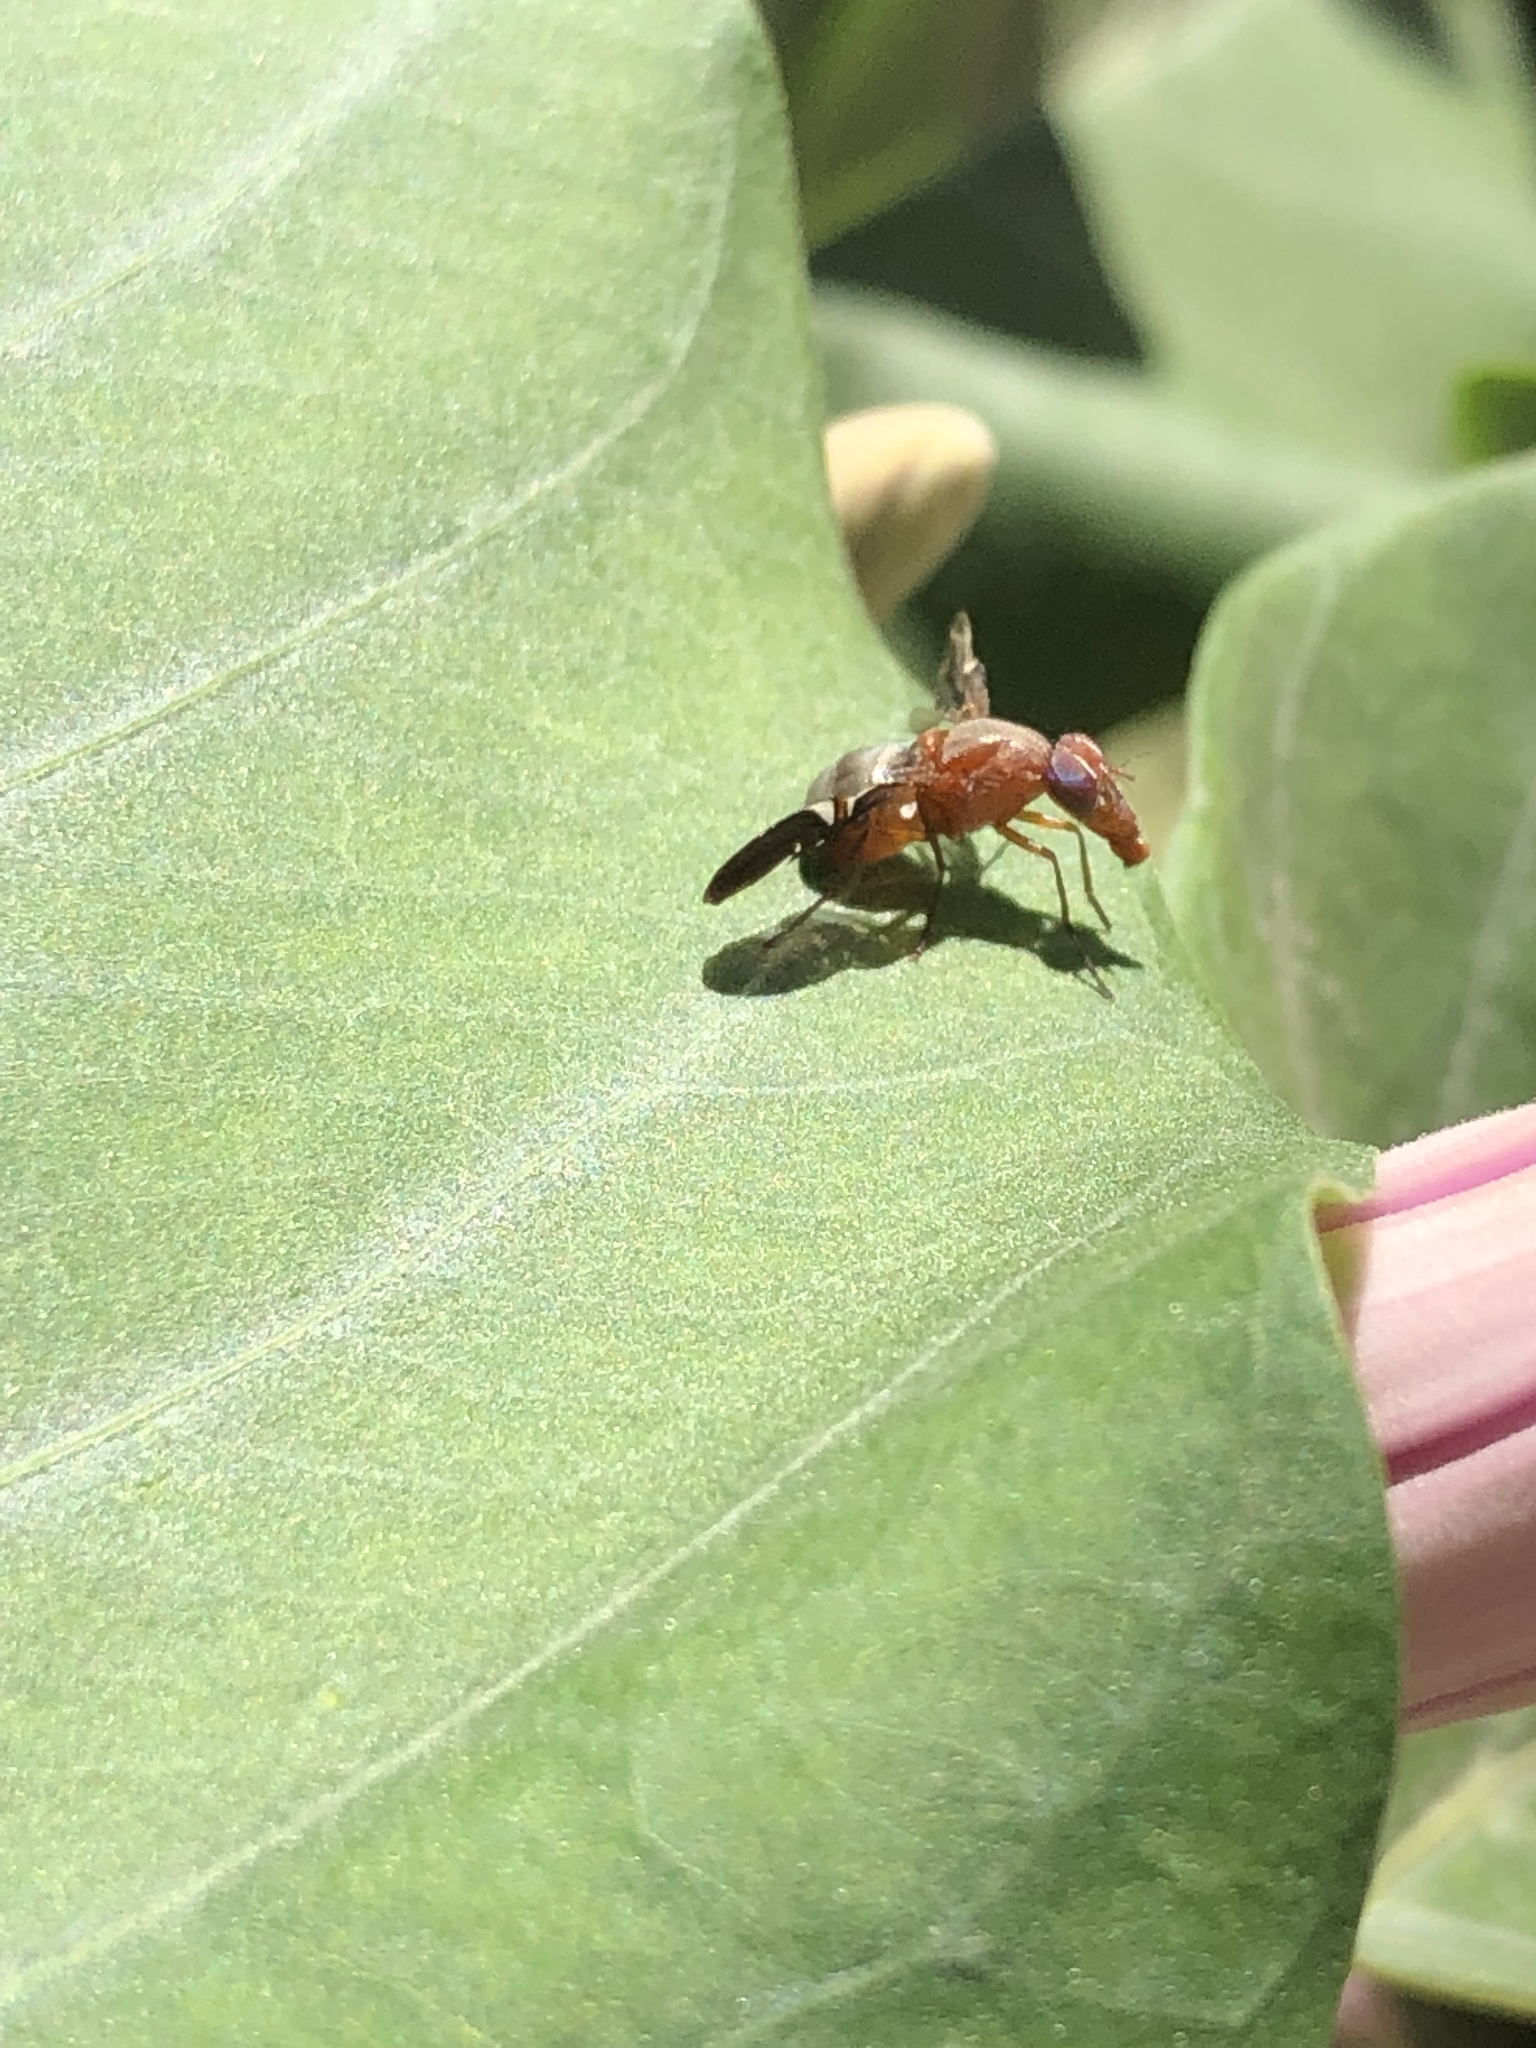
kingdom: Animalia
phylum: Arthropoda
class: Insecta
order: Diptera
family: Ulidiidae
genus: Delphinia
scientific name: Delphinia picta
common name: Common picture-winged fly
